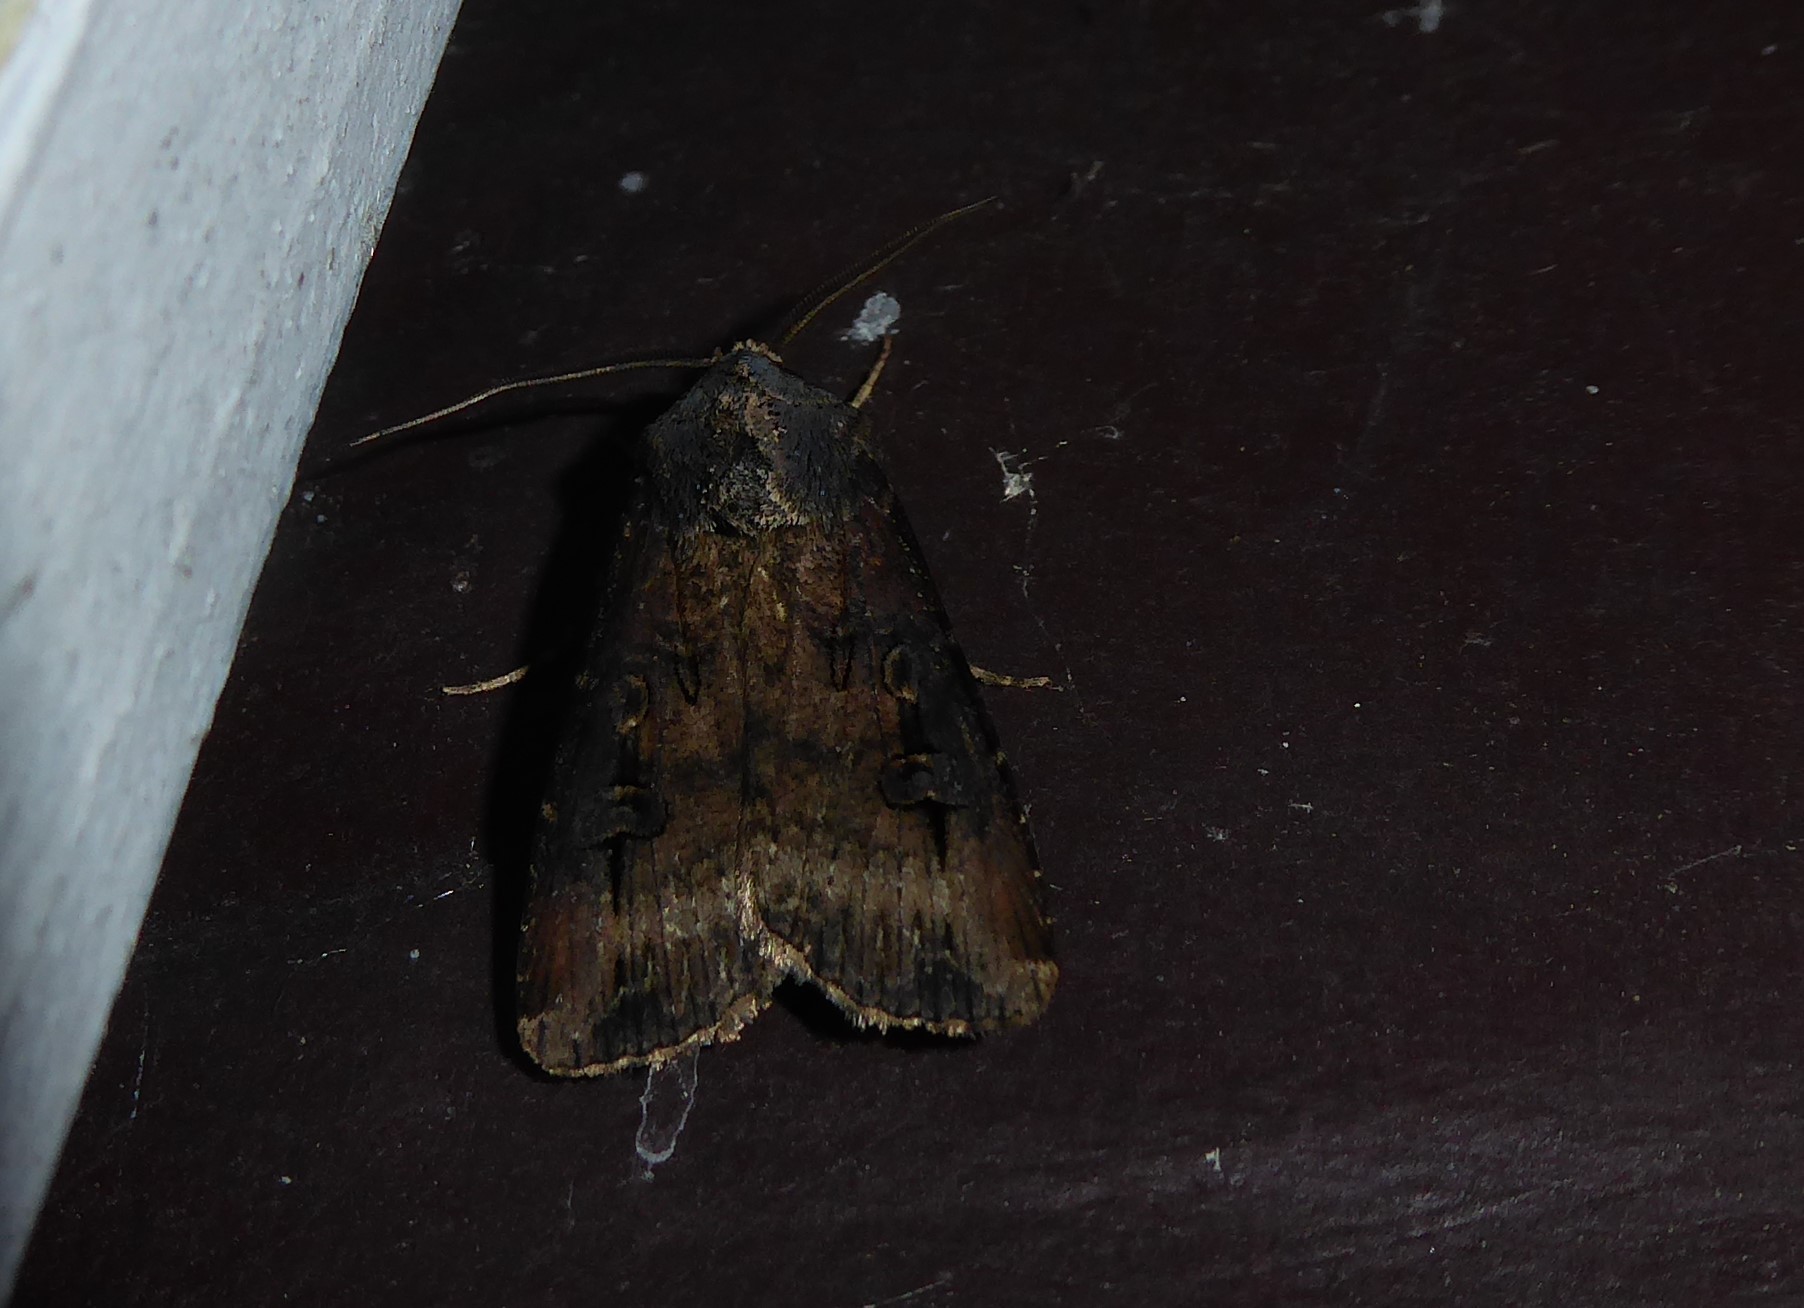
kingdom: Animalia
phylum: Arthropoda
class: Insecta
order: Lepidoptera
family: Noctuidae
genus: Agrotis
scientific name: Agrotis ipsilon
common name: Dark sword-grass
